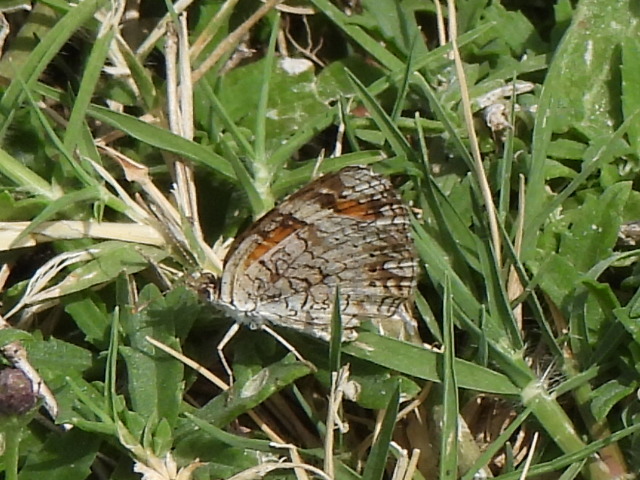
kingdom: Animalia
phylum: Arthropoda
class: Insecta
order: Lepidoptera
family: Nymphalidae
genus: Phyciodes
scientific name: Phyciodes phaon
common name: Phaon crescent
